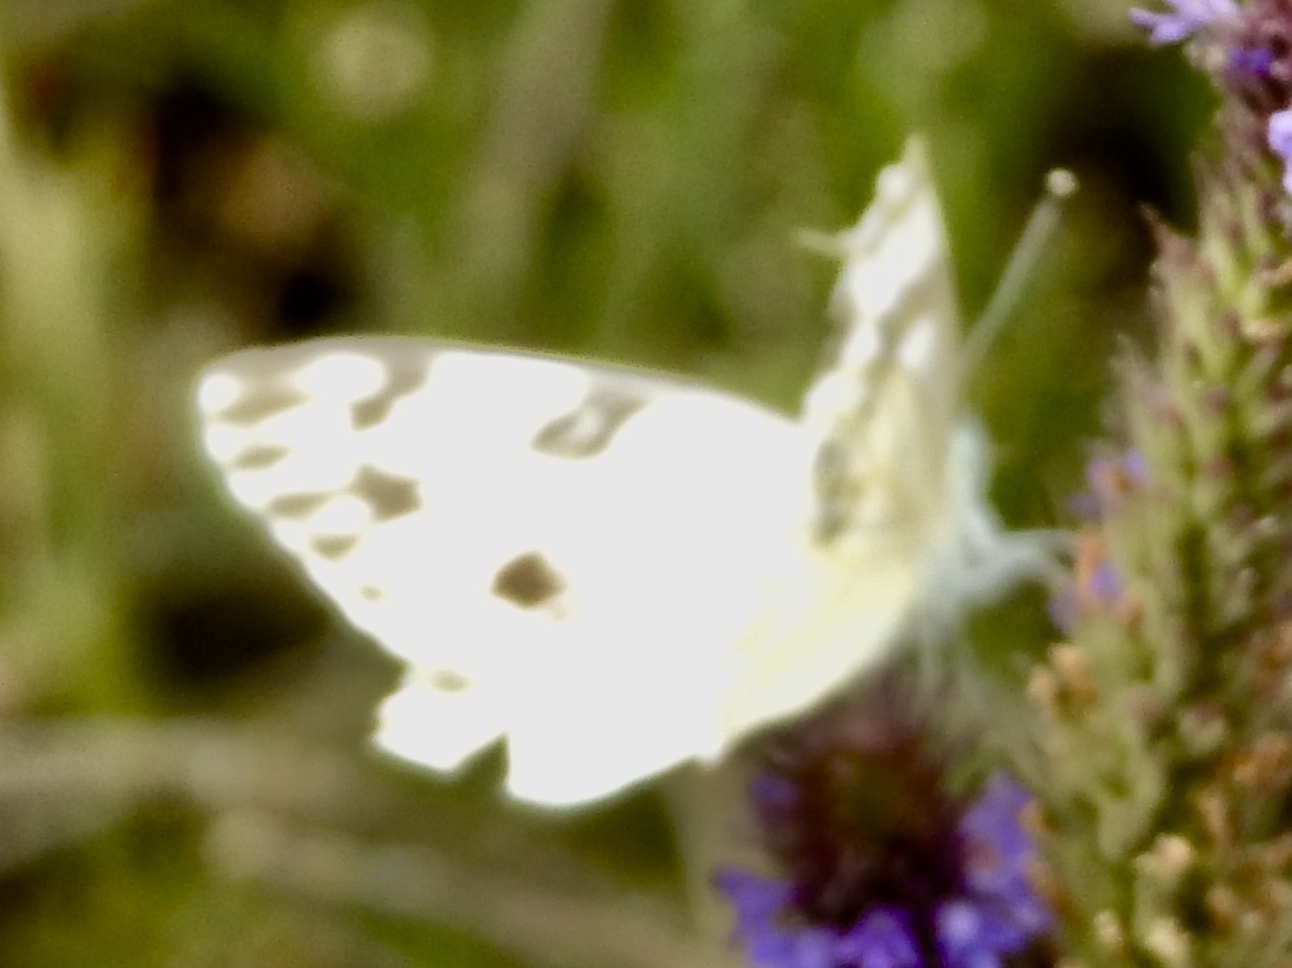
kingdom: Animalia
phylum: Arthropoda
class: Insecta
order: Lepidoptera
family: Pieridae
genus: Pontia
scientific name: Pontia protodice
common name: Checkered white
